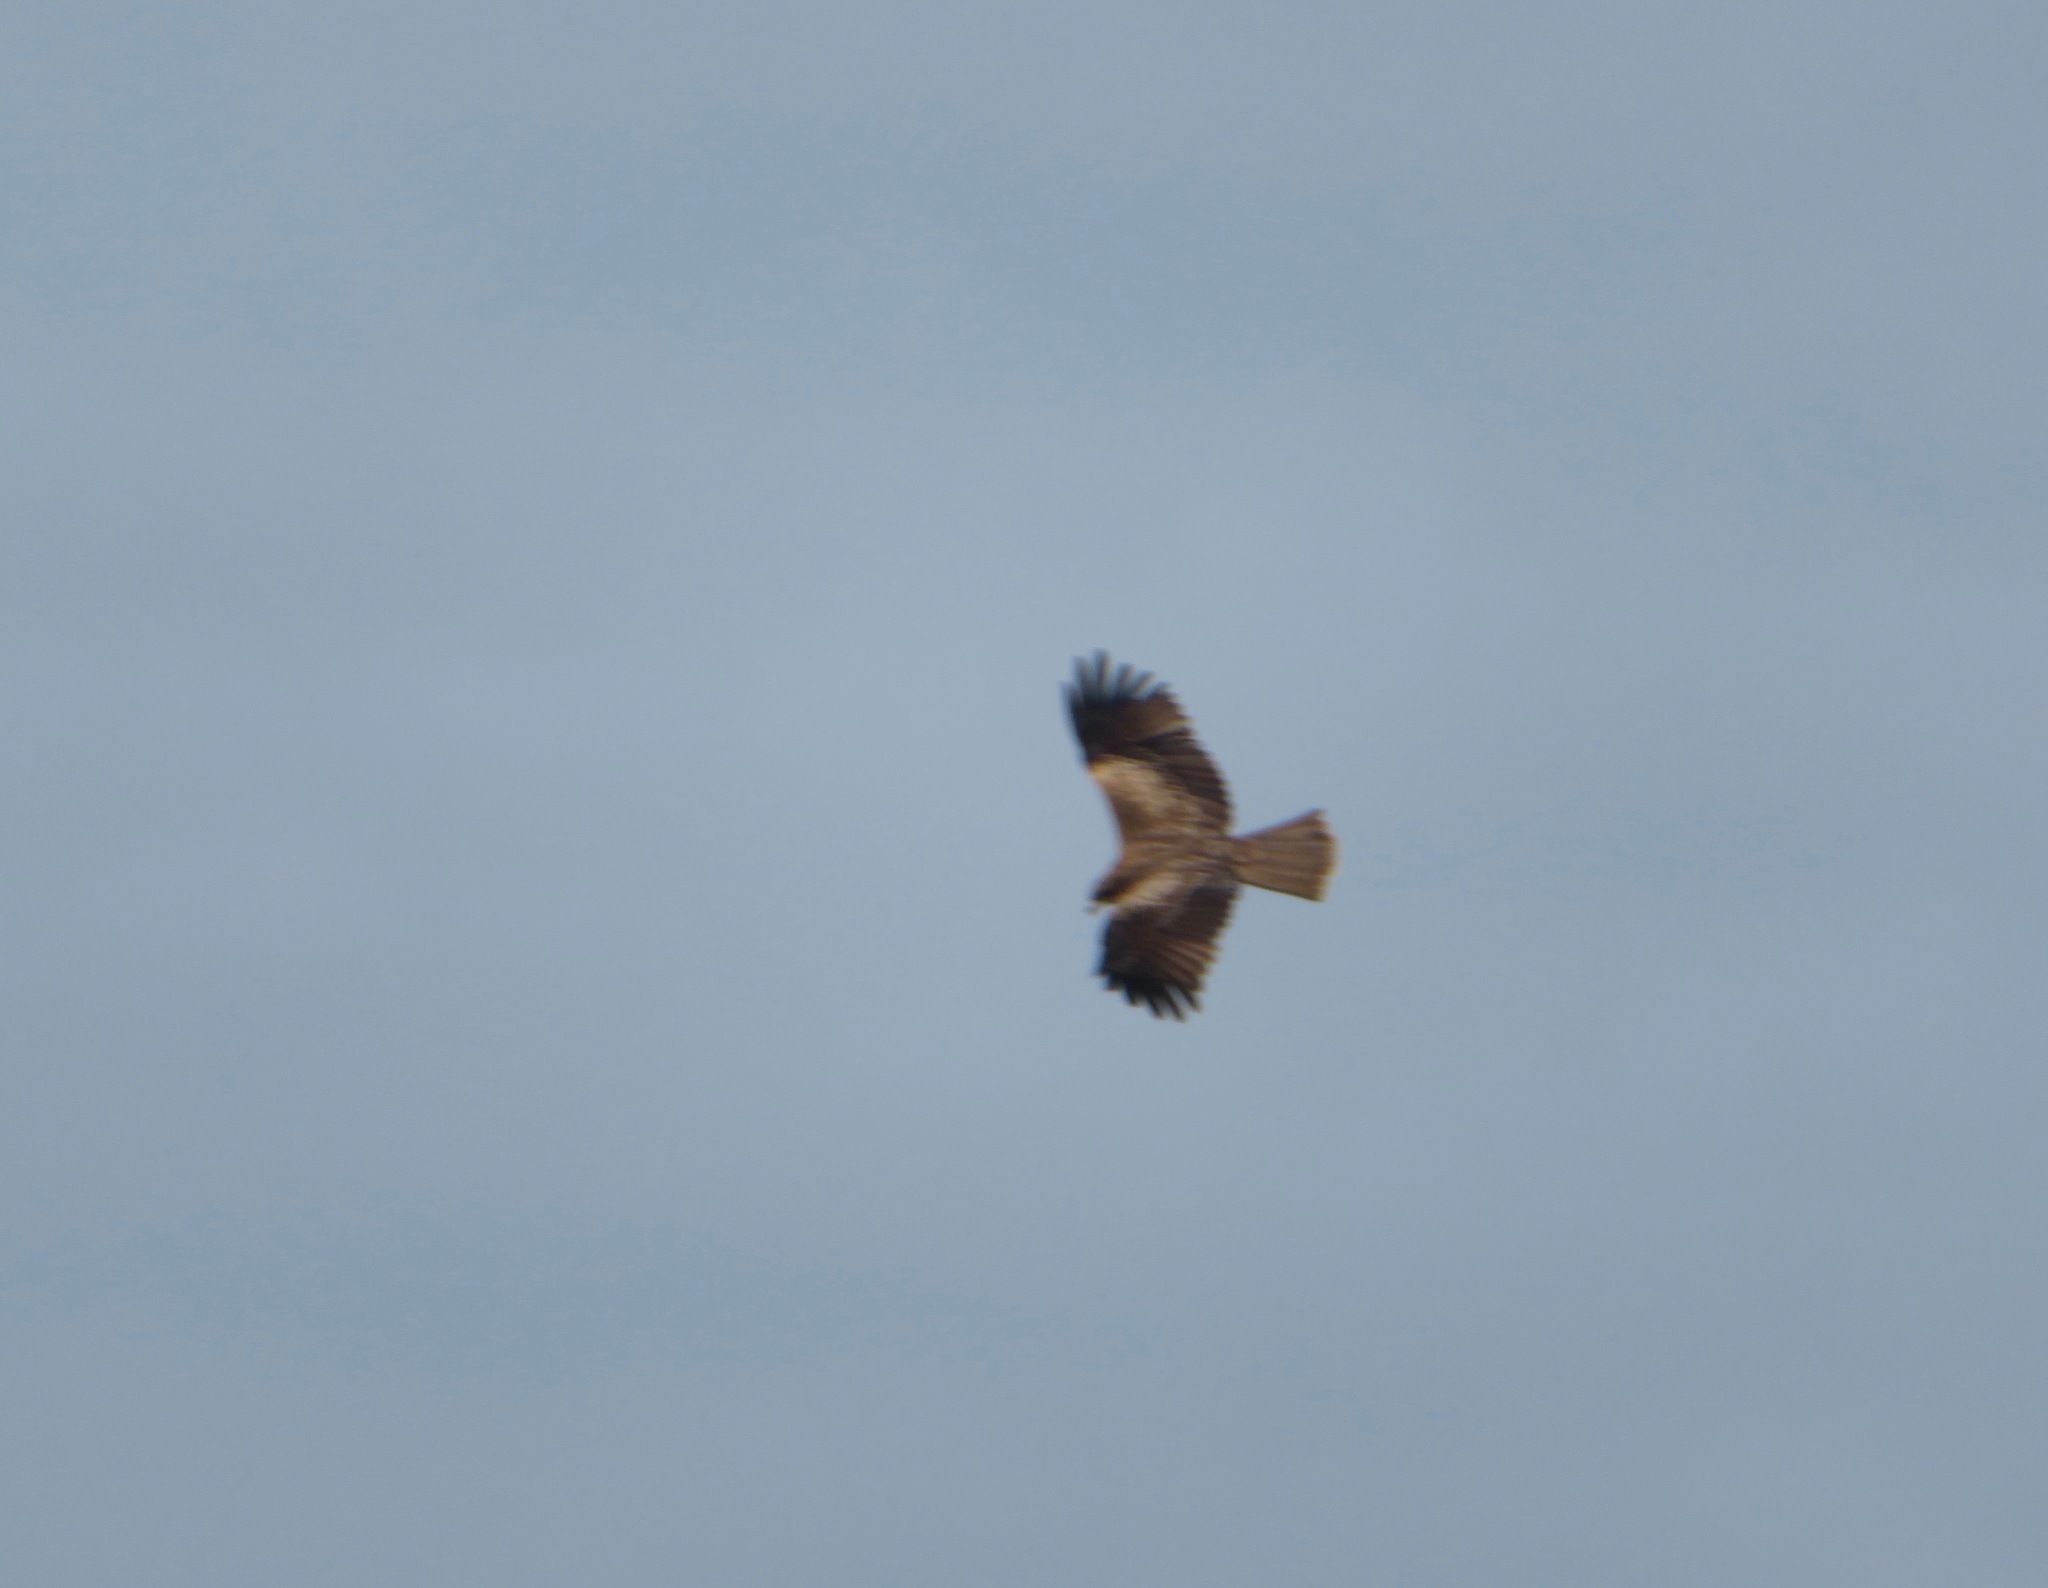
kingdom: Animalia
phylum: Chordata
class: Aves
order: Accipitriformes
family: Accipitridae
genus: Milvus
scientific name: Milvus migrans
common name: Black kite
